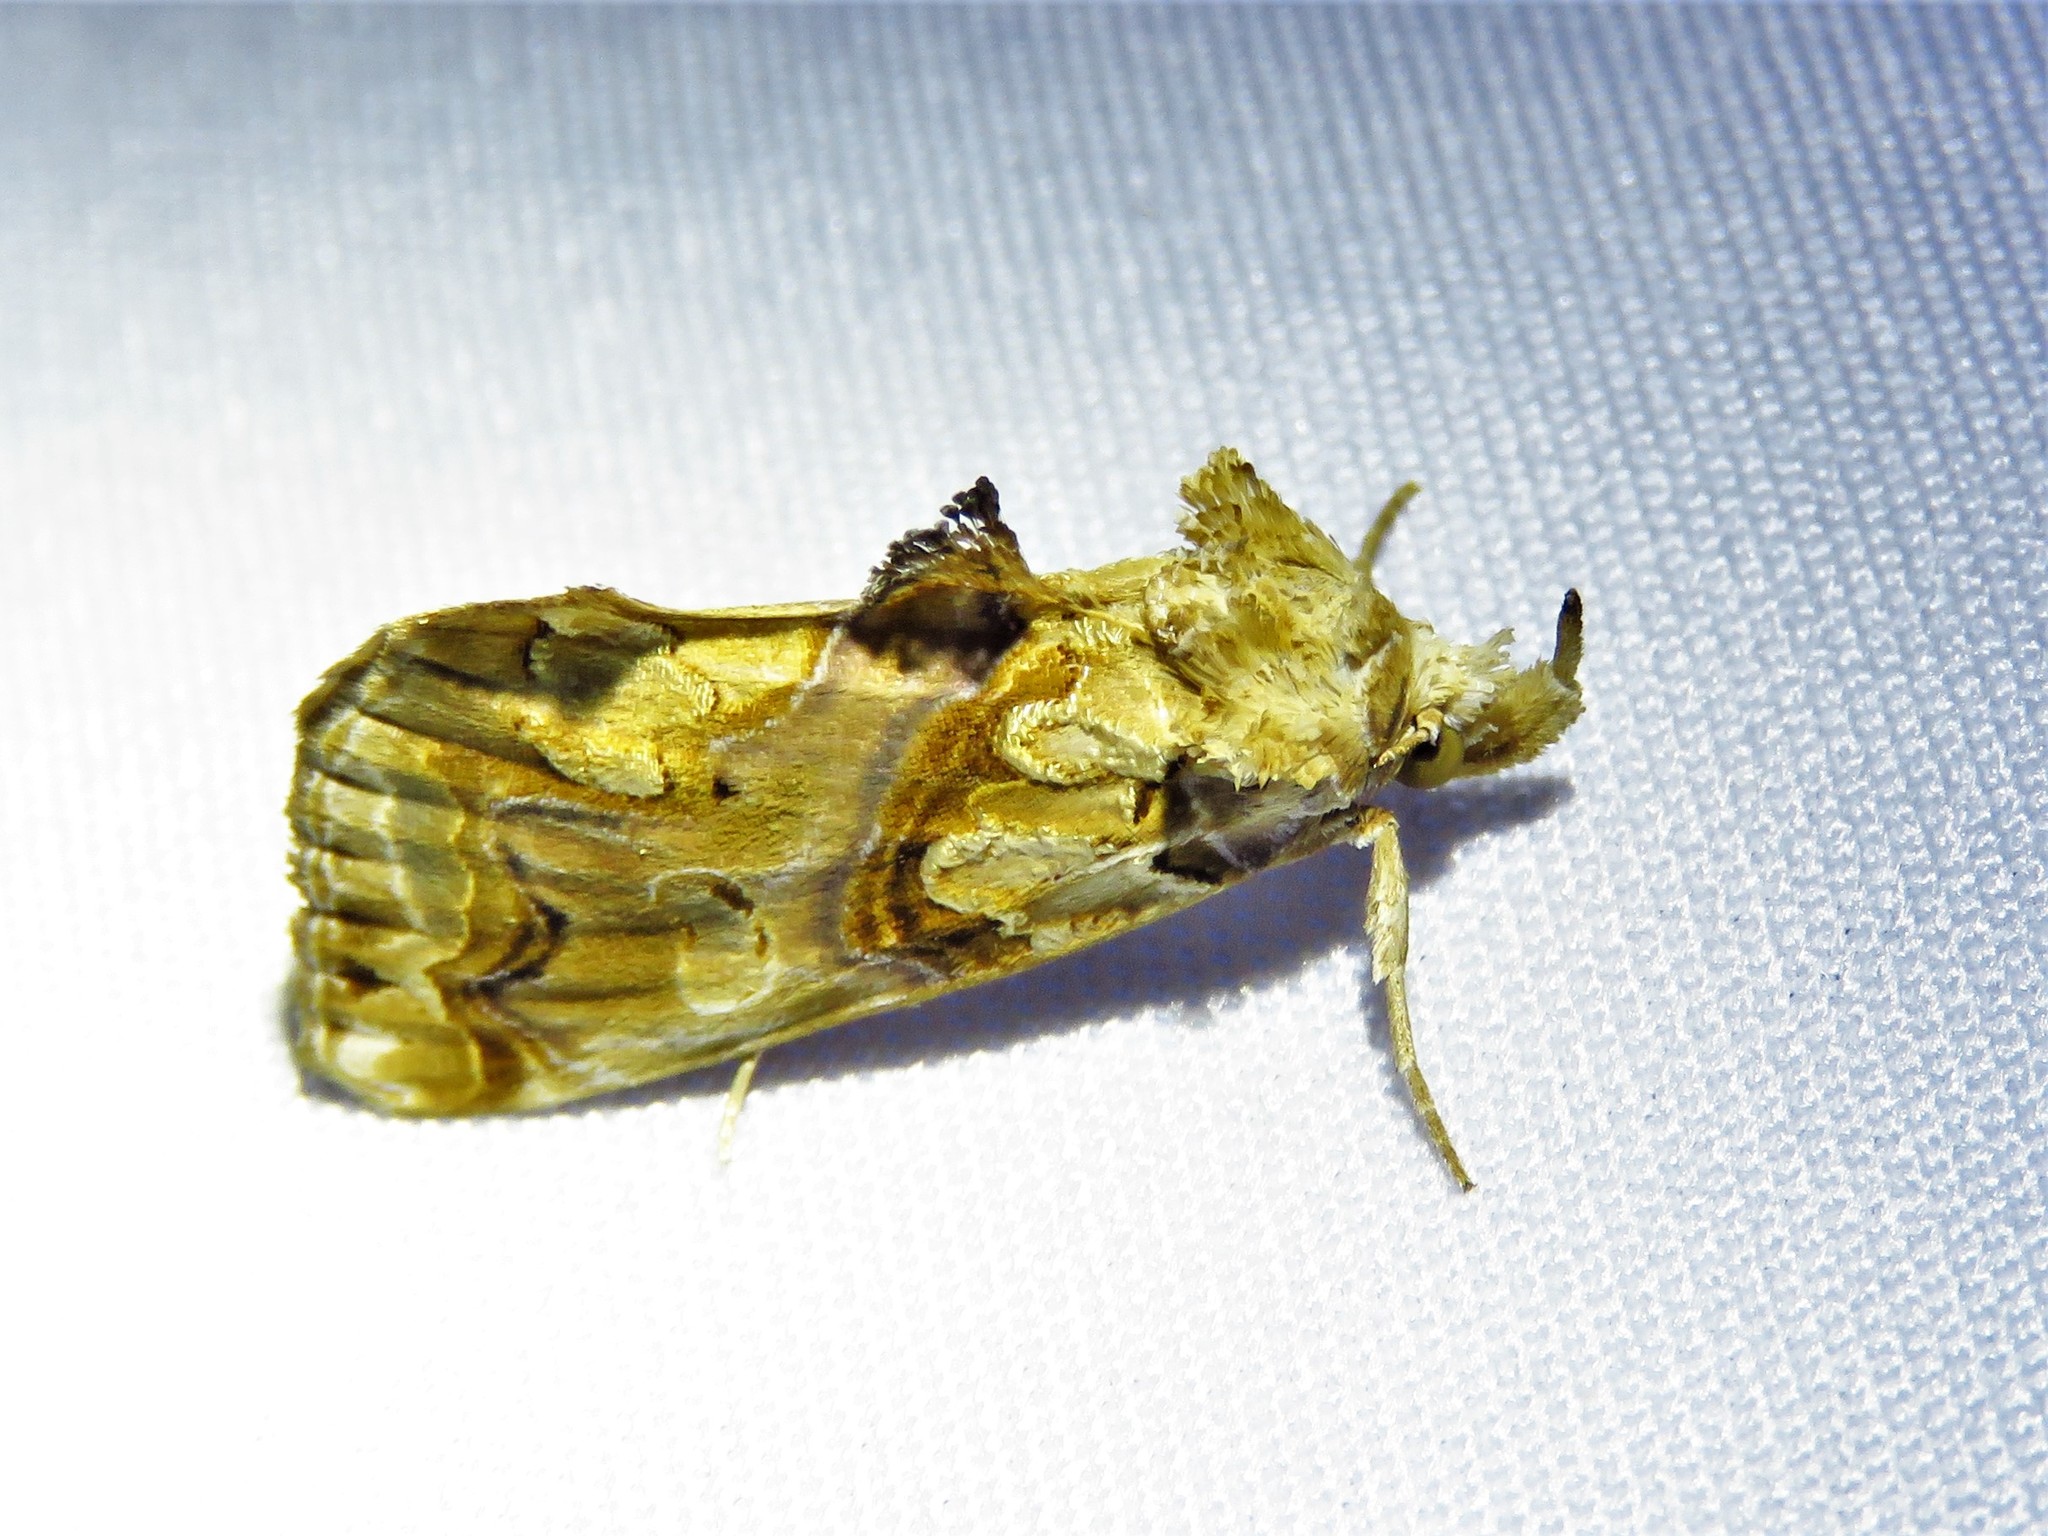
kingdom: Animalia
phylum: Arthropoda
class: Insecta
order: Lepidoptera
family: Erebidae
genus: Plusiodonta
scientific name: Plusiodonta compressipalpis
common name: Moonseed moth
